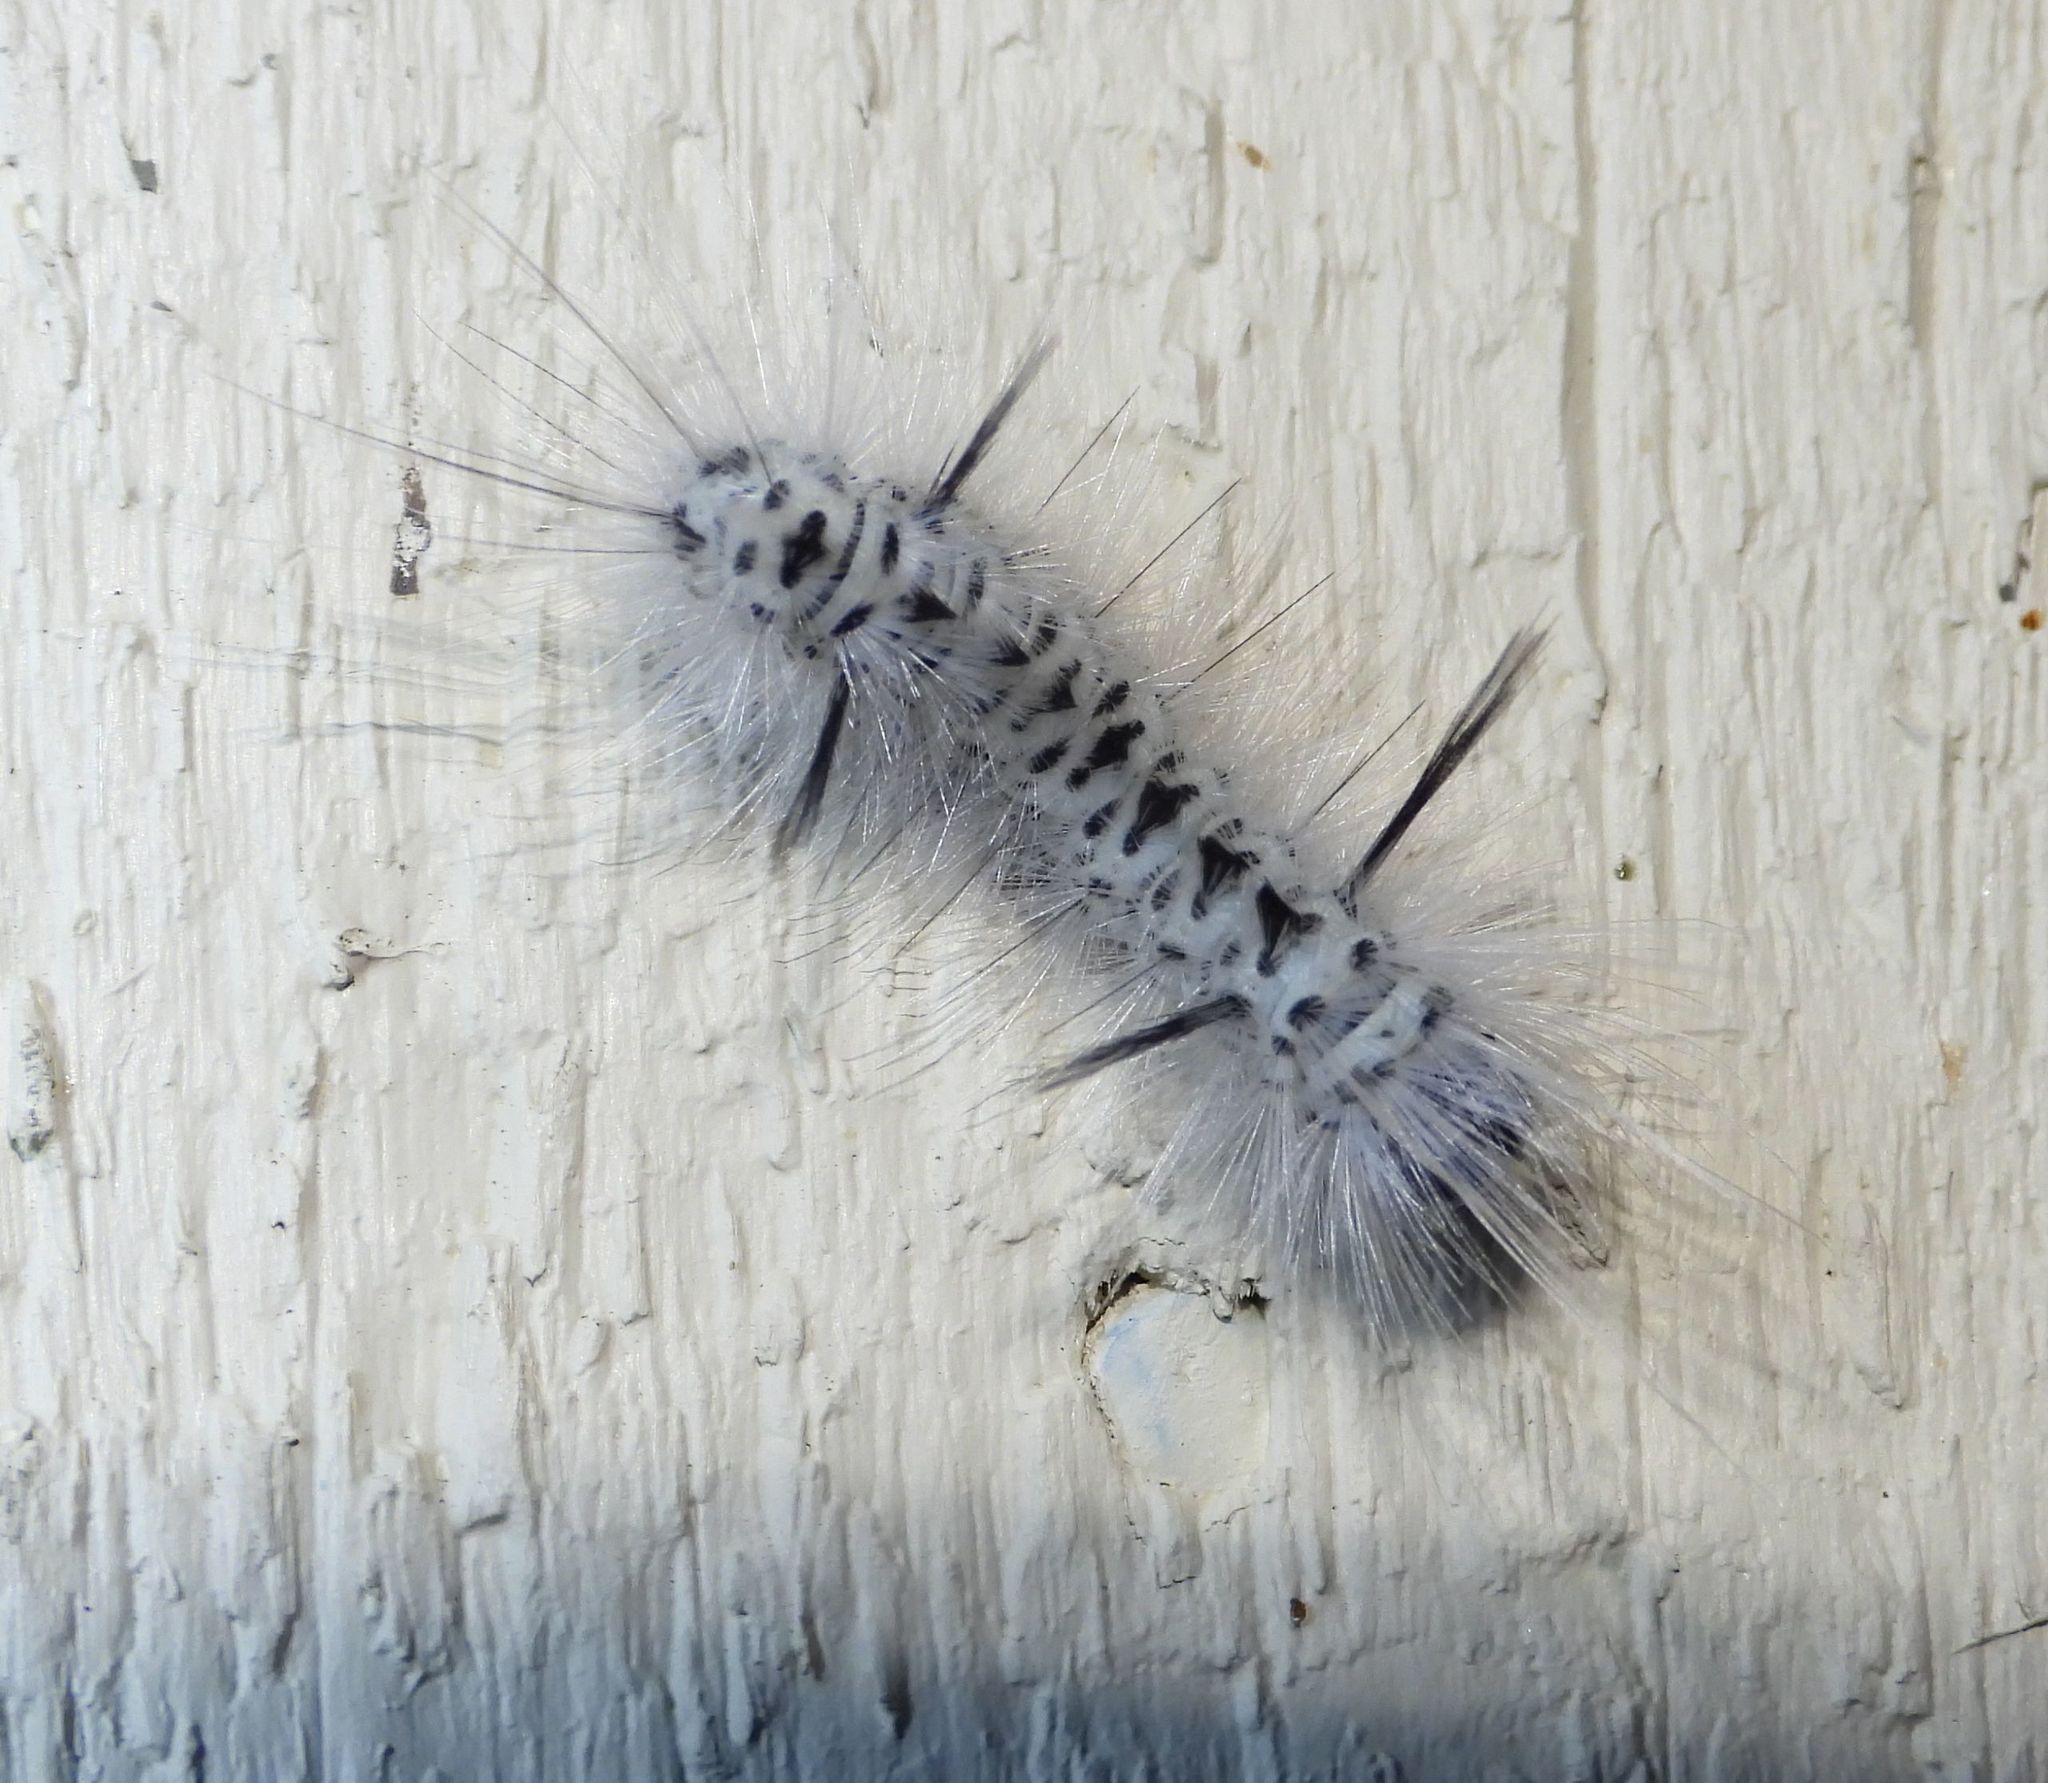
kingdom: Animalia
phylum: Arthropoda
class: Insecta
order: Lepidoptera
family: Erebidae
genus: Lophocampa
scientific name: Lophocampa caryae
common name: Hickory tussock moth
